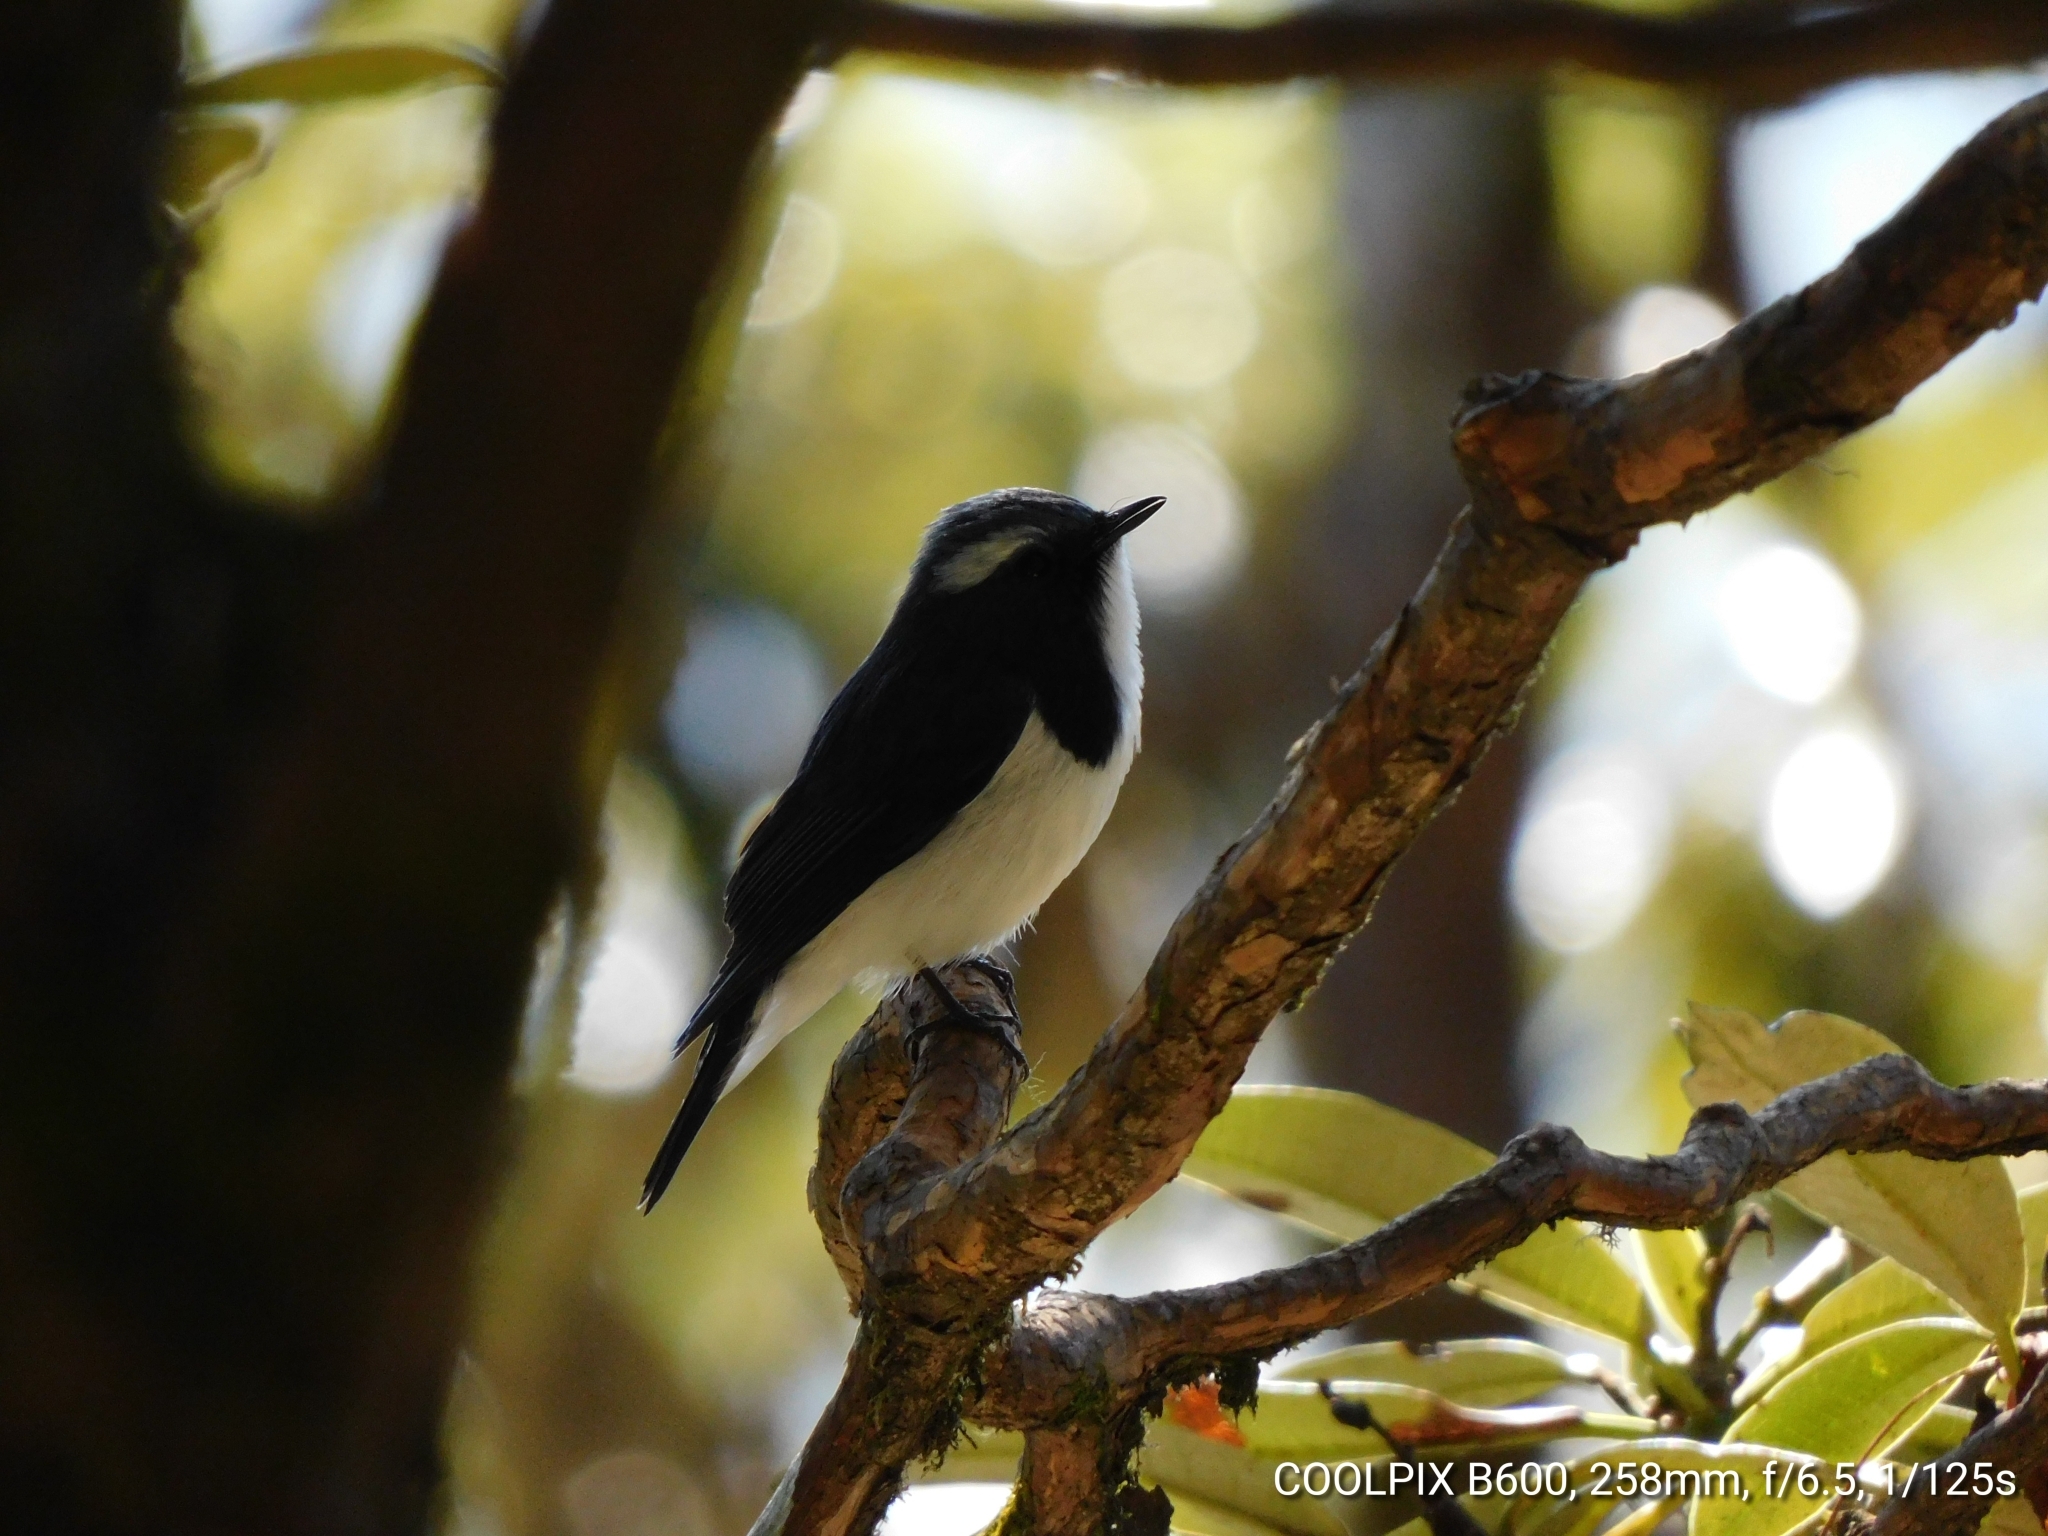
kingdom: Animalia
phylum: Chordata
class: Aves
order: Passeriformes
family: Muscicapidae
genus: Ficedula
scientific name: Ficedula superciliaris
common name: Ultramarine flycatcher
